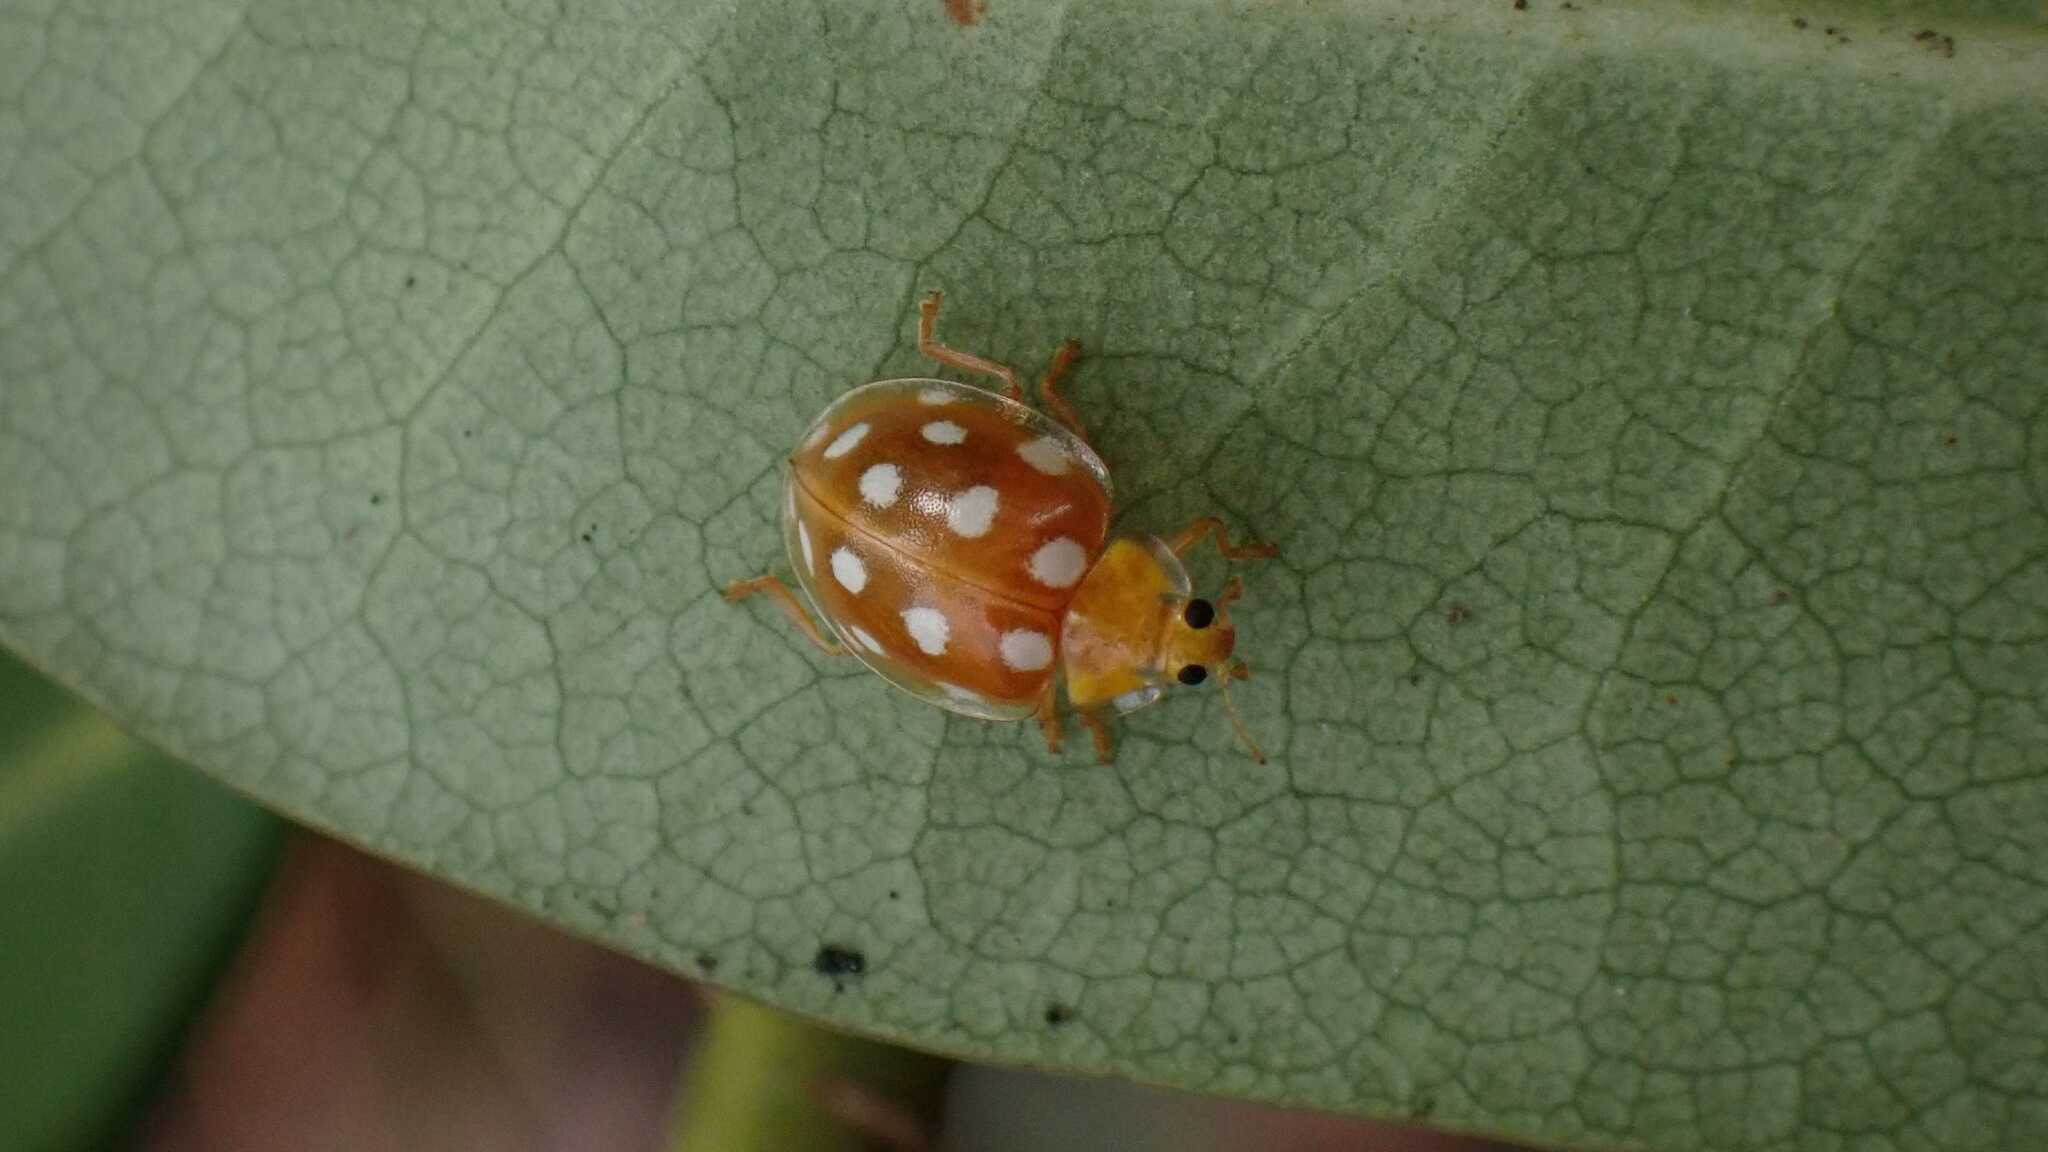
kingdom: Animalia
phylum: Arthropoda
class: Insecta
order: Coleoptera
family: Coccinellidae
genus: Halyzia
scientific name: Halyzia sedecimguttata
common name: Orange ladybird
